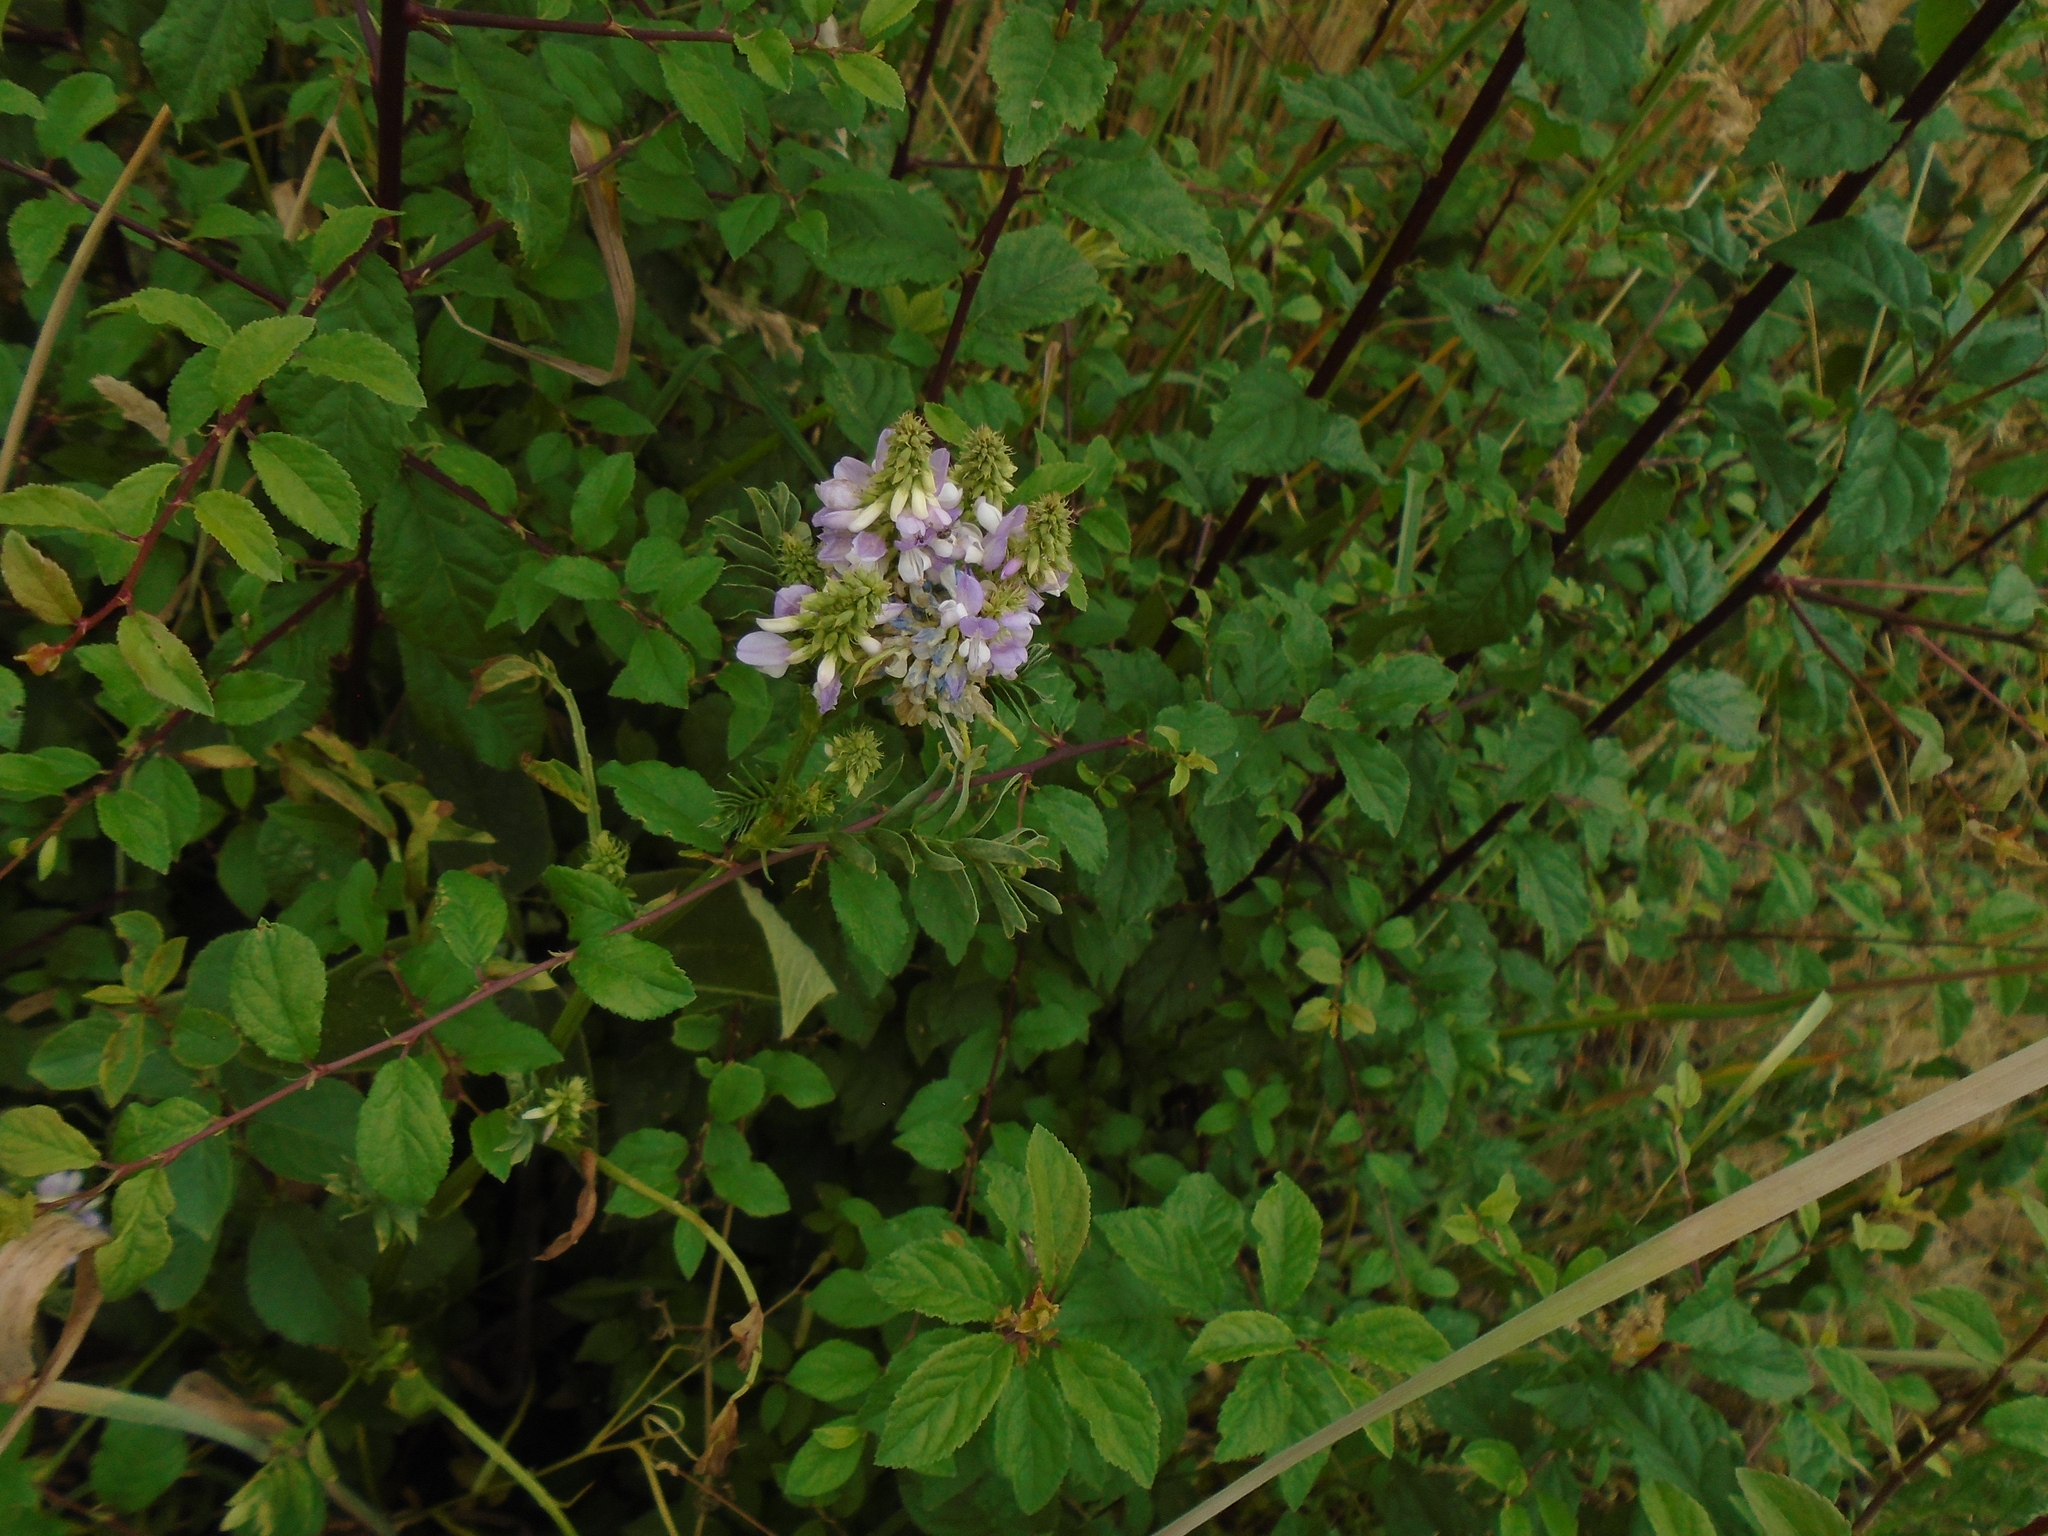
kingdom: Plantae
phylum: Tracheophyta
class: Magnoliopsida
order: Fabales
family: Fabaceae
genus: Galega
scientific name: Galega officinalis
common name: Goat's-rue
